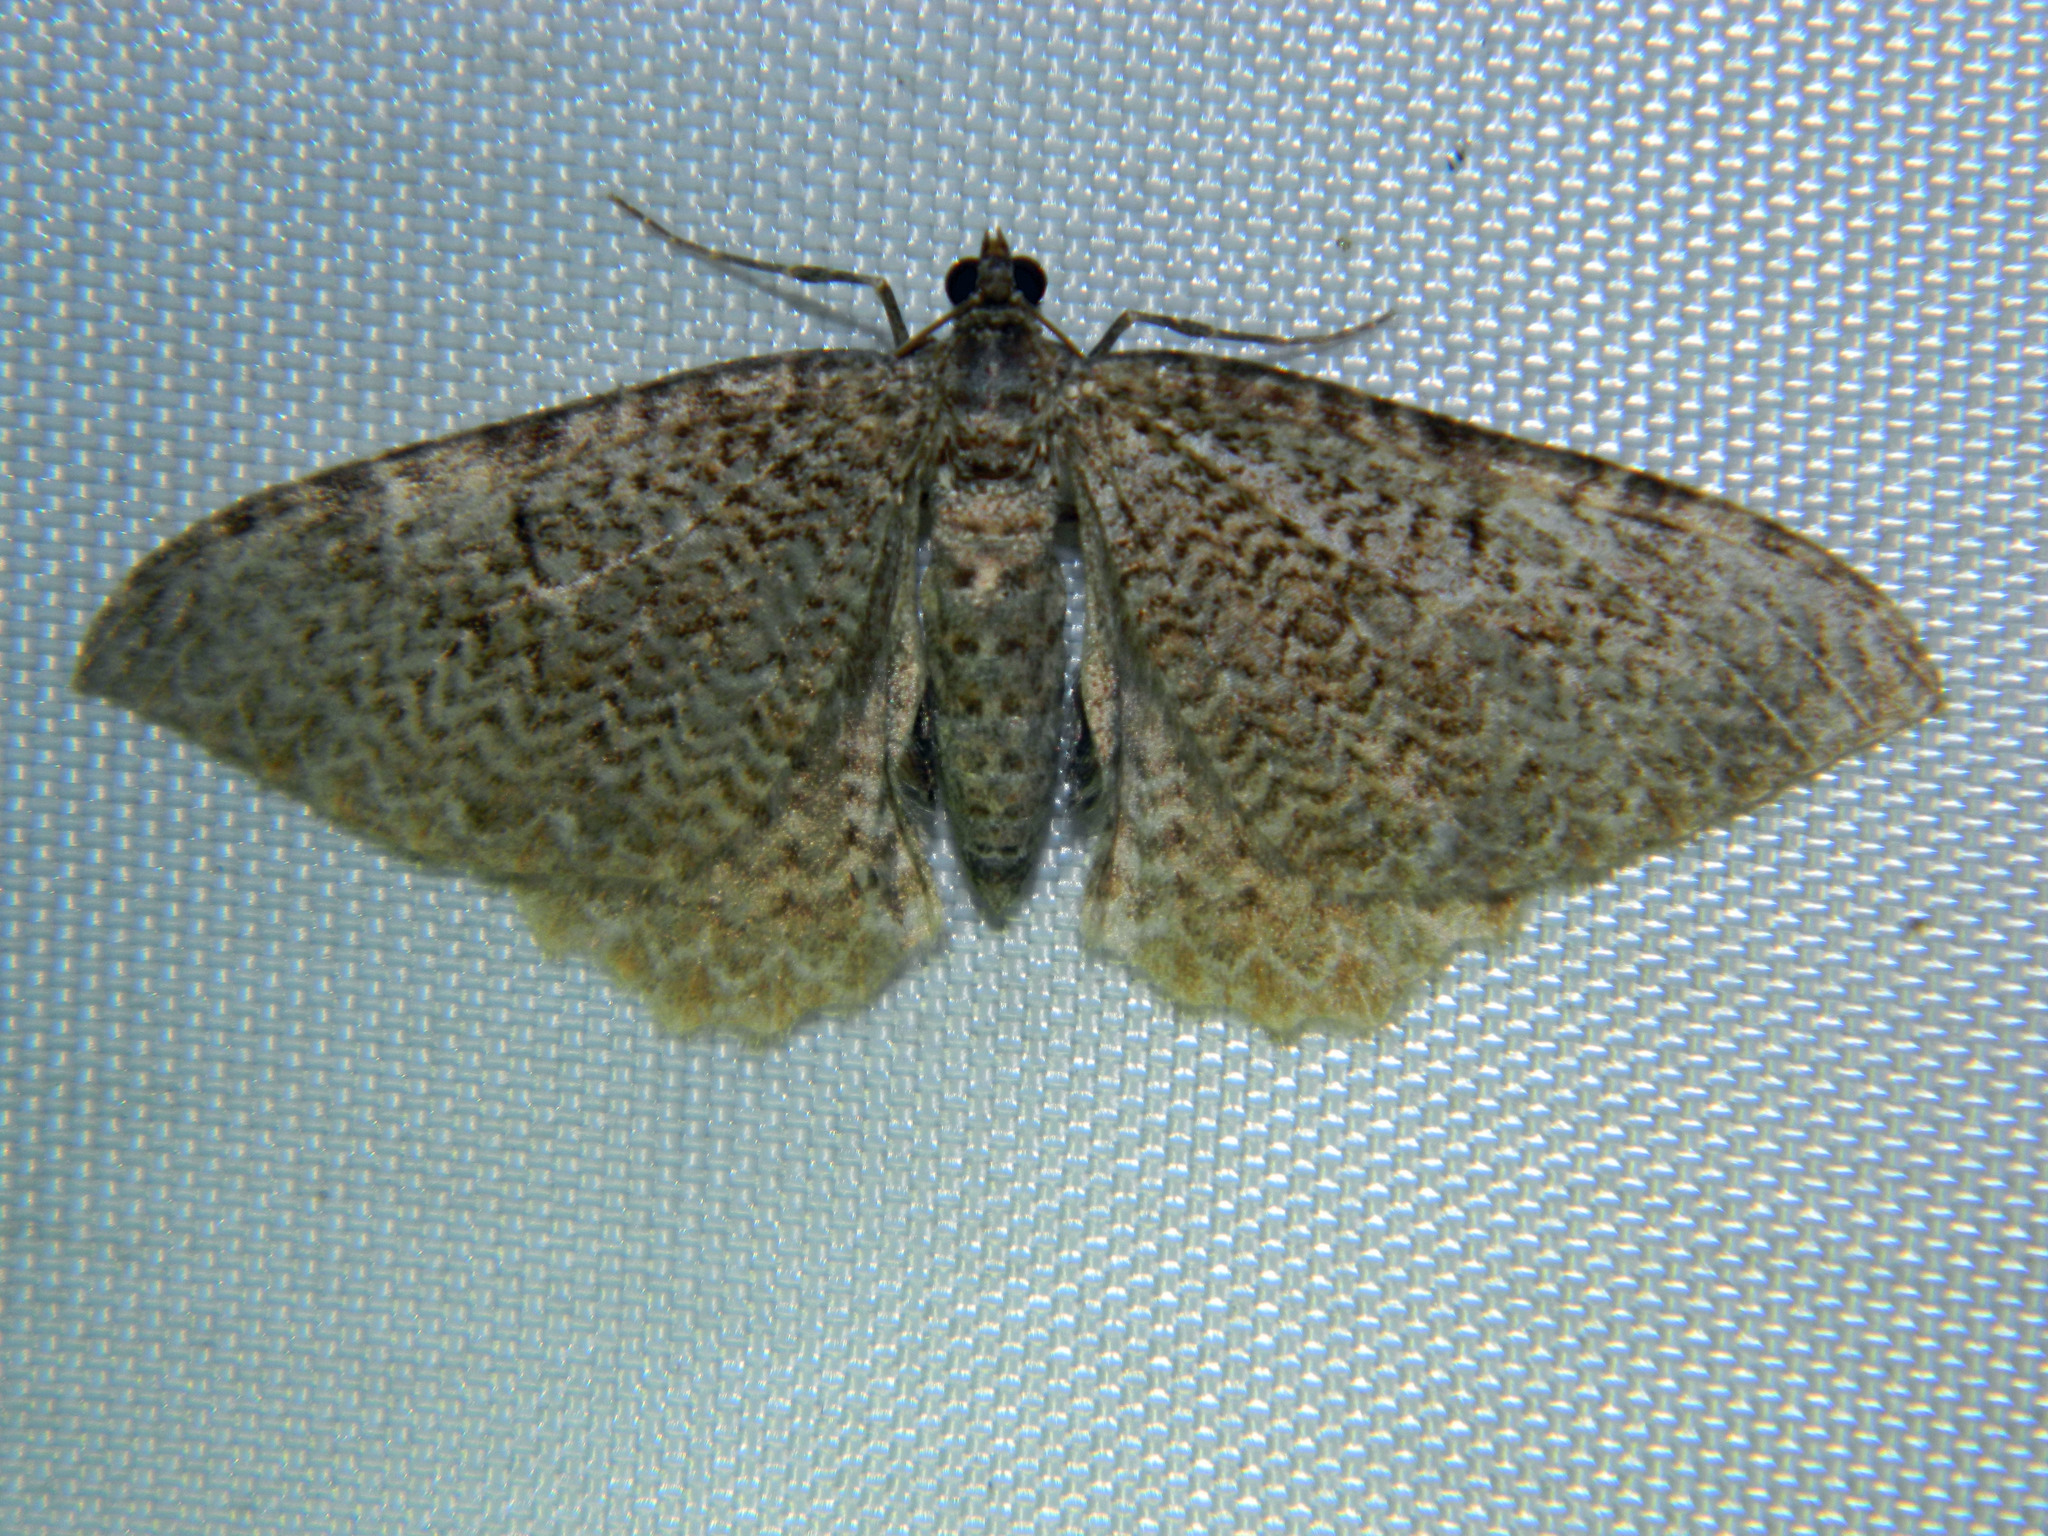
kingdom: Animalia
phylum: Arthropoda
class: Insecta
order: Lepidoptera
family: Geometridae
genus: Rheumaptera
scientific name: Rheumaptera
